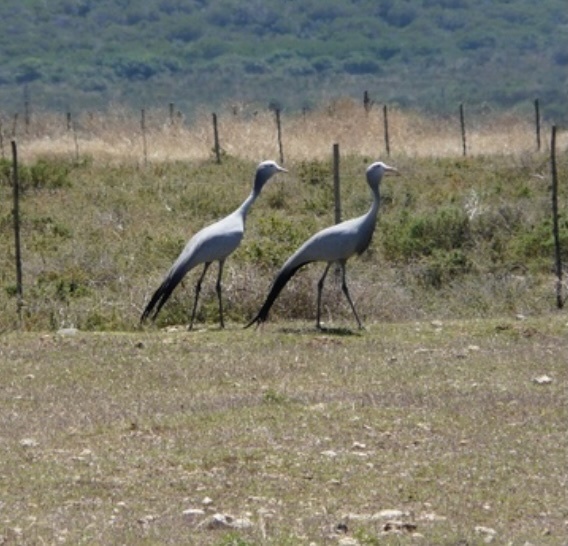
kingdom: Animalia
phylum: Chordata
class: Aves
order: Gruiformes
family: Gruidae
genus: Anthropoides
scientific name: Anthropoides paradiseus
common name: Blue crane
